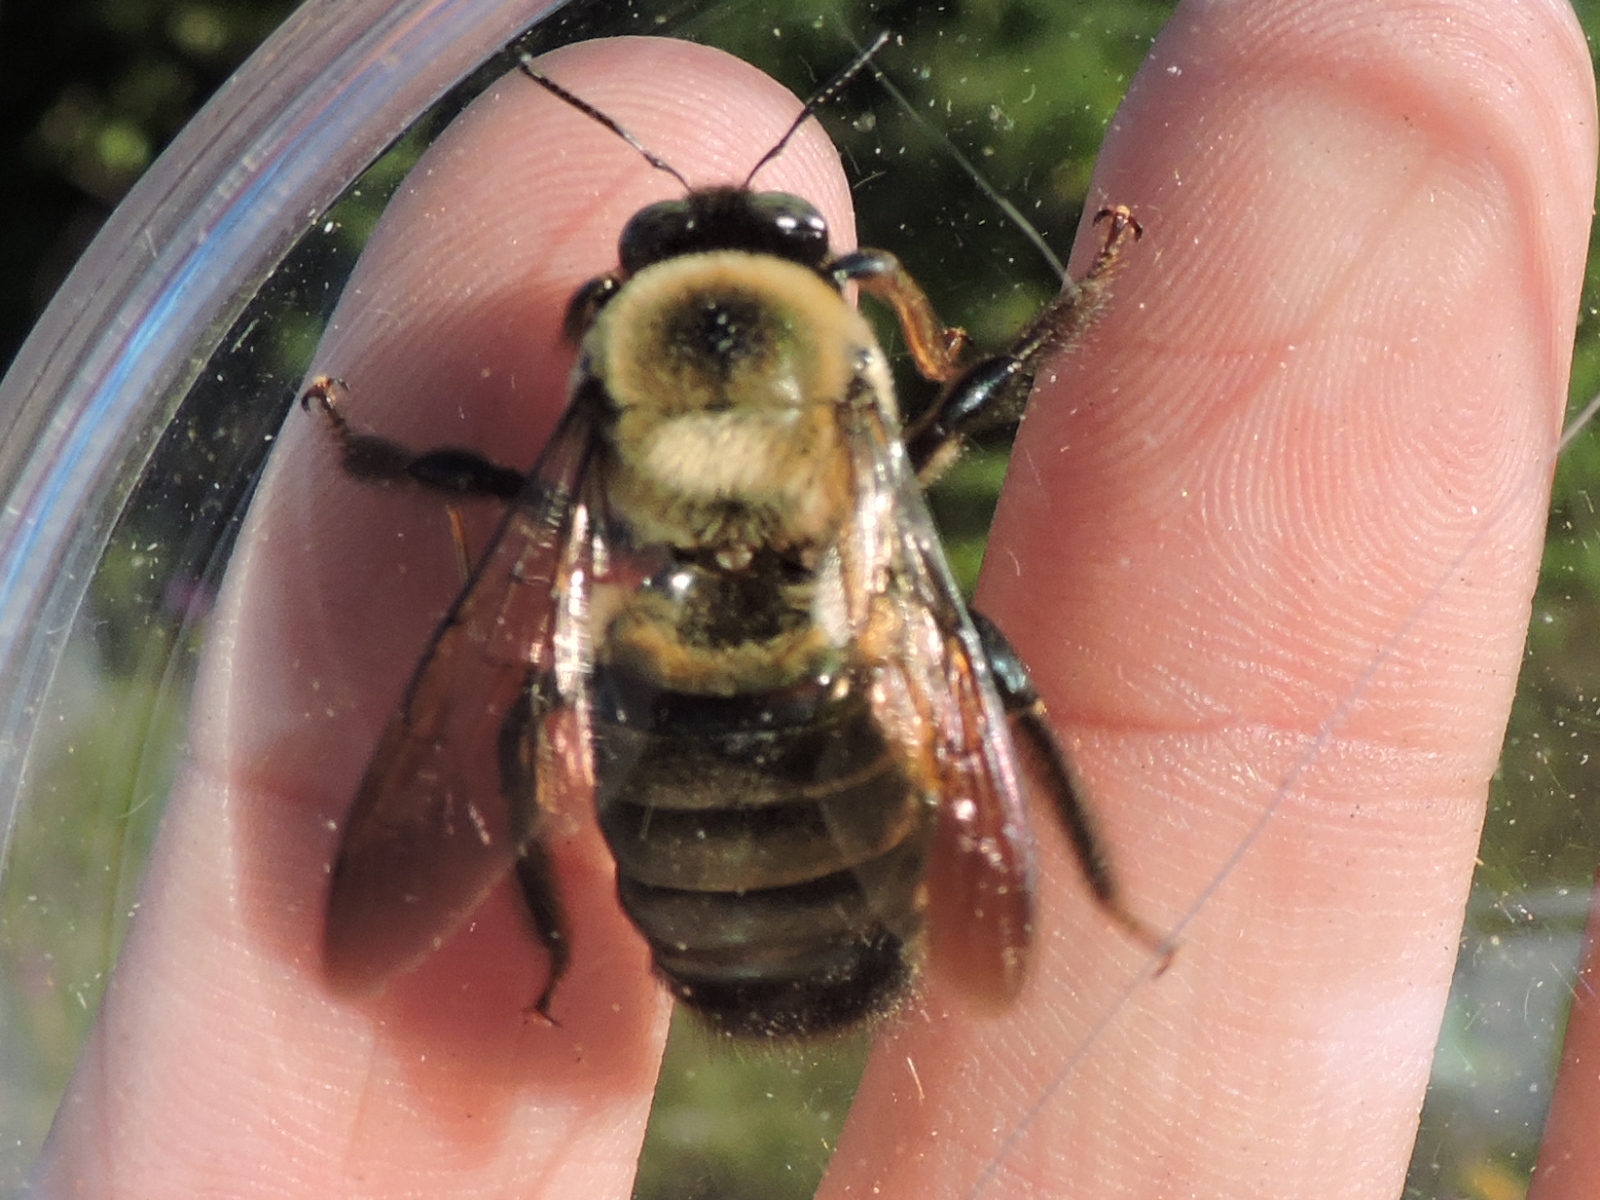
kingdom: Animalia
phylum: Arthropoda
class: Insecta
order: Hymenoptera
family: Apidae
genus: Xylocopa
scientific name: Xylocopa virginica
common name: Carpenter bee
